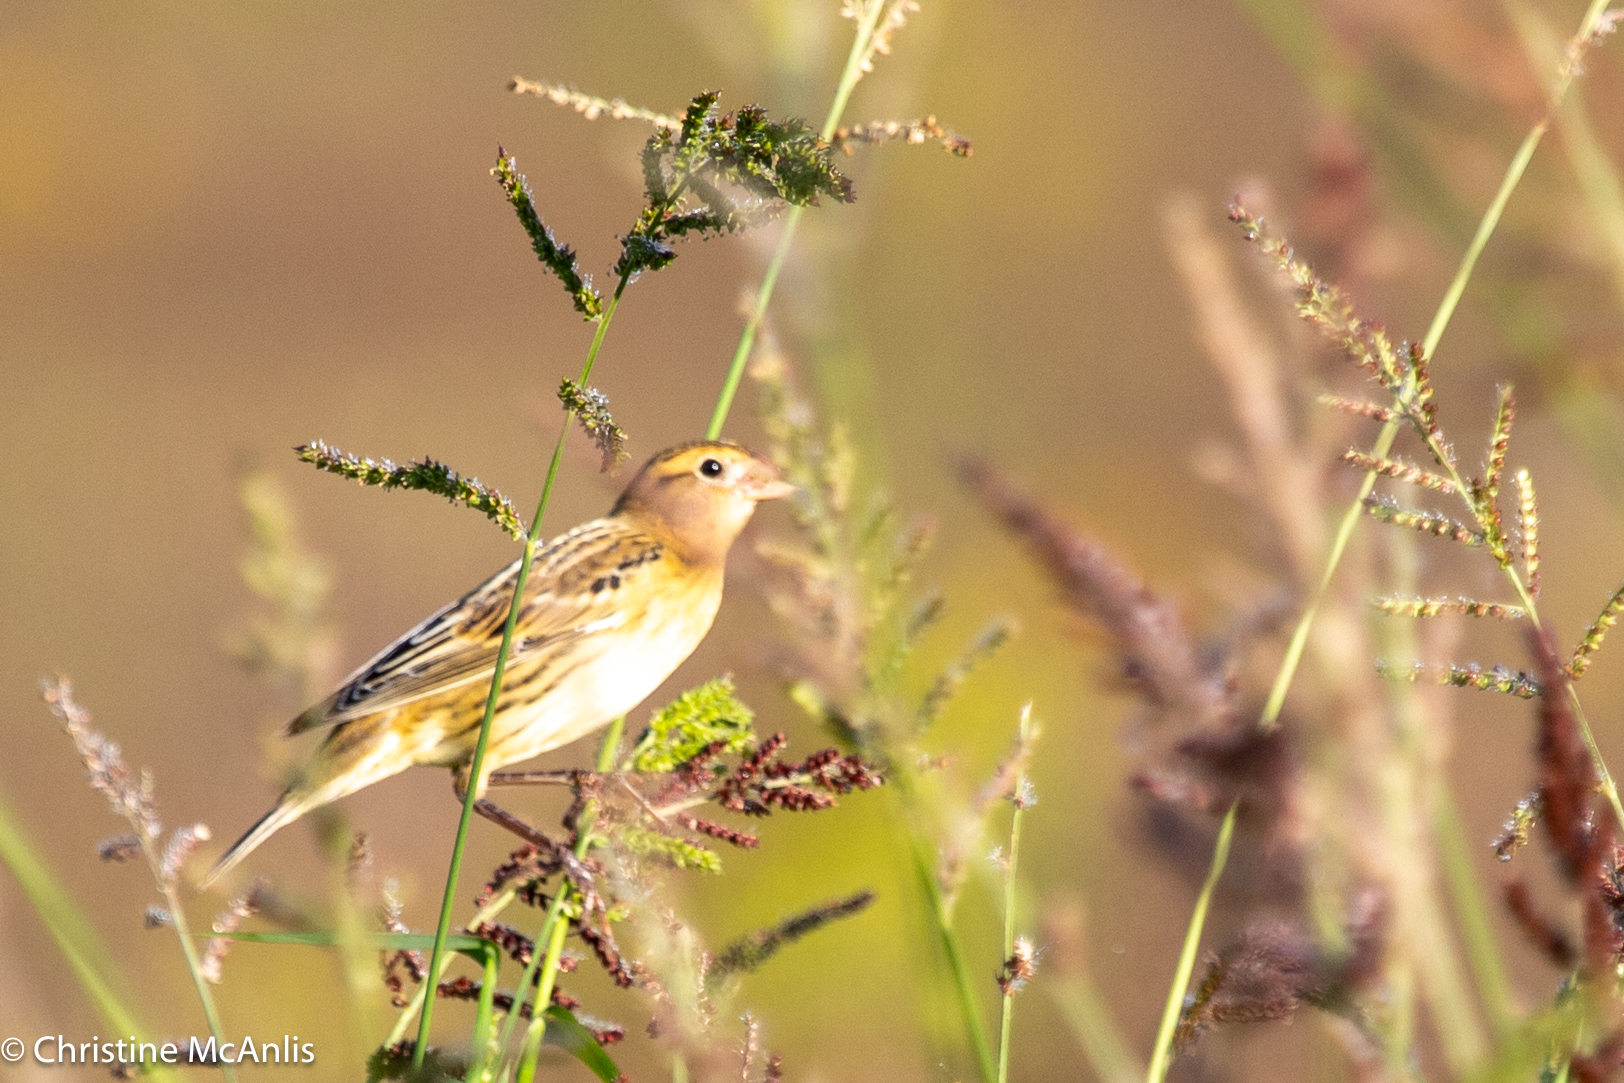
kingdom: Animalia
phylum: Chordata
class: Aves
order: Passeriformes
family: Icteridae
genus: Dolichonyx
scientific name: Dolichonyx oryzivorus
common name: Bobolink
